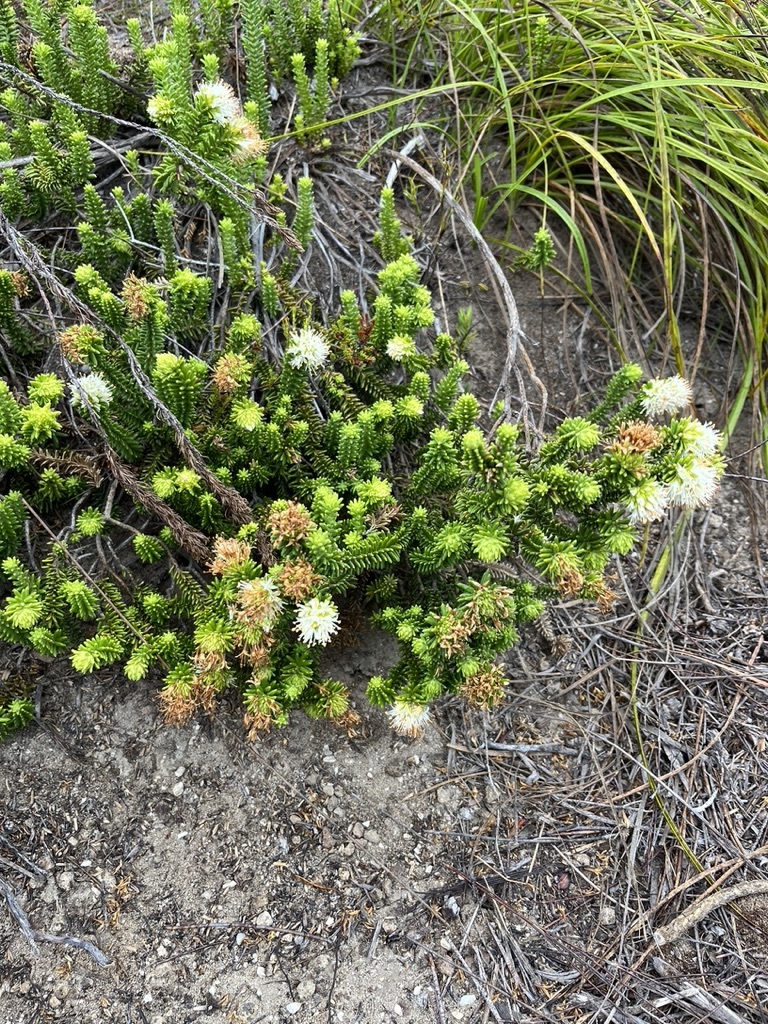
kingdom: Plantae
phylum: Tracheophyta
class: Magnoliopsida
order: Lamiales
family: Stilbaceae
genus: Campylostachys
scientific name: Campylostachys cernua
